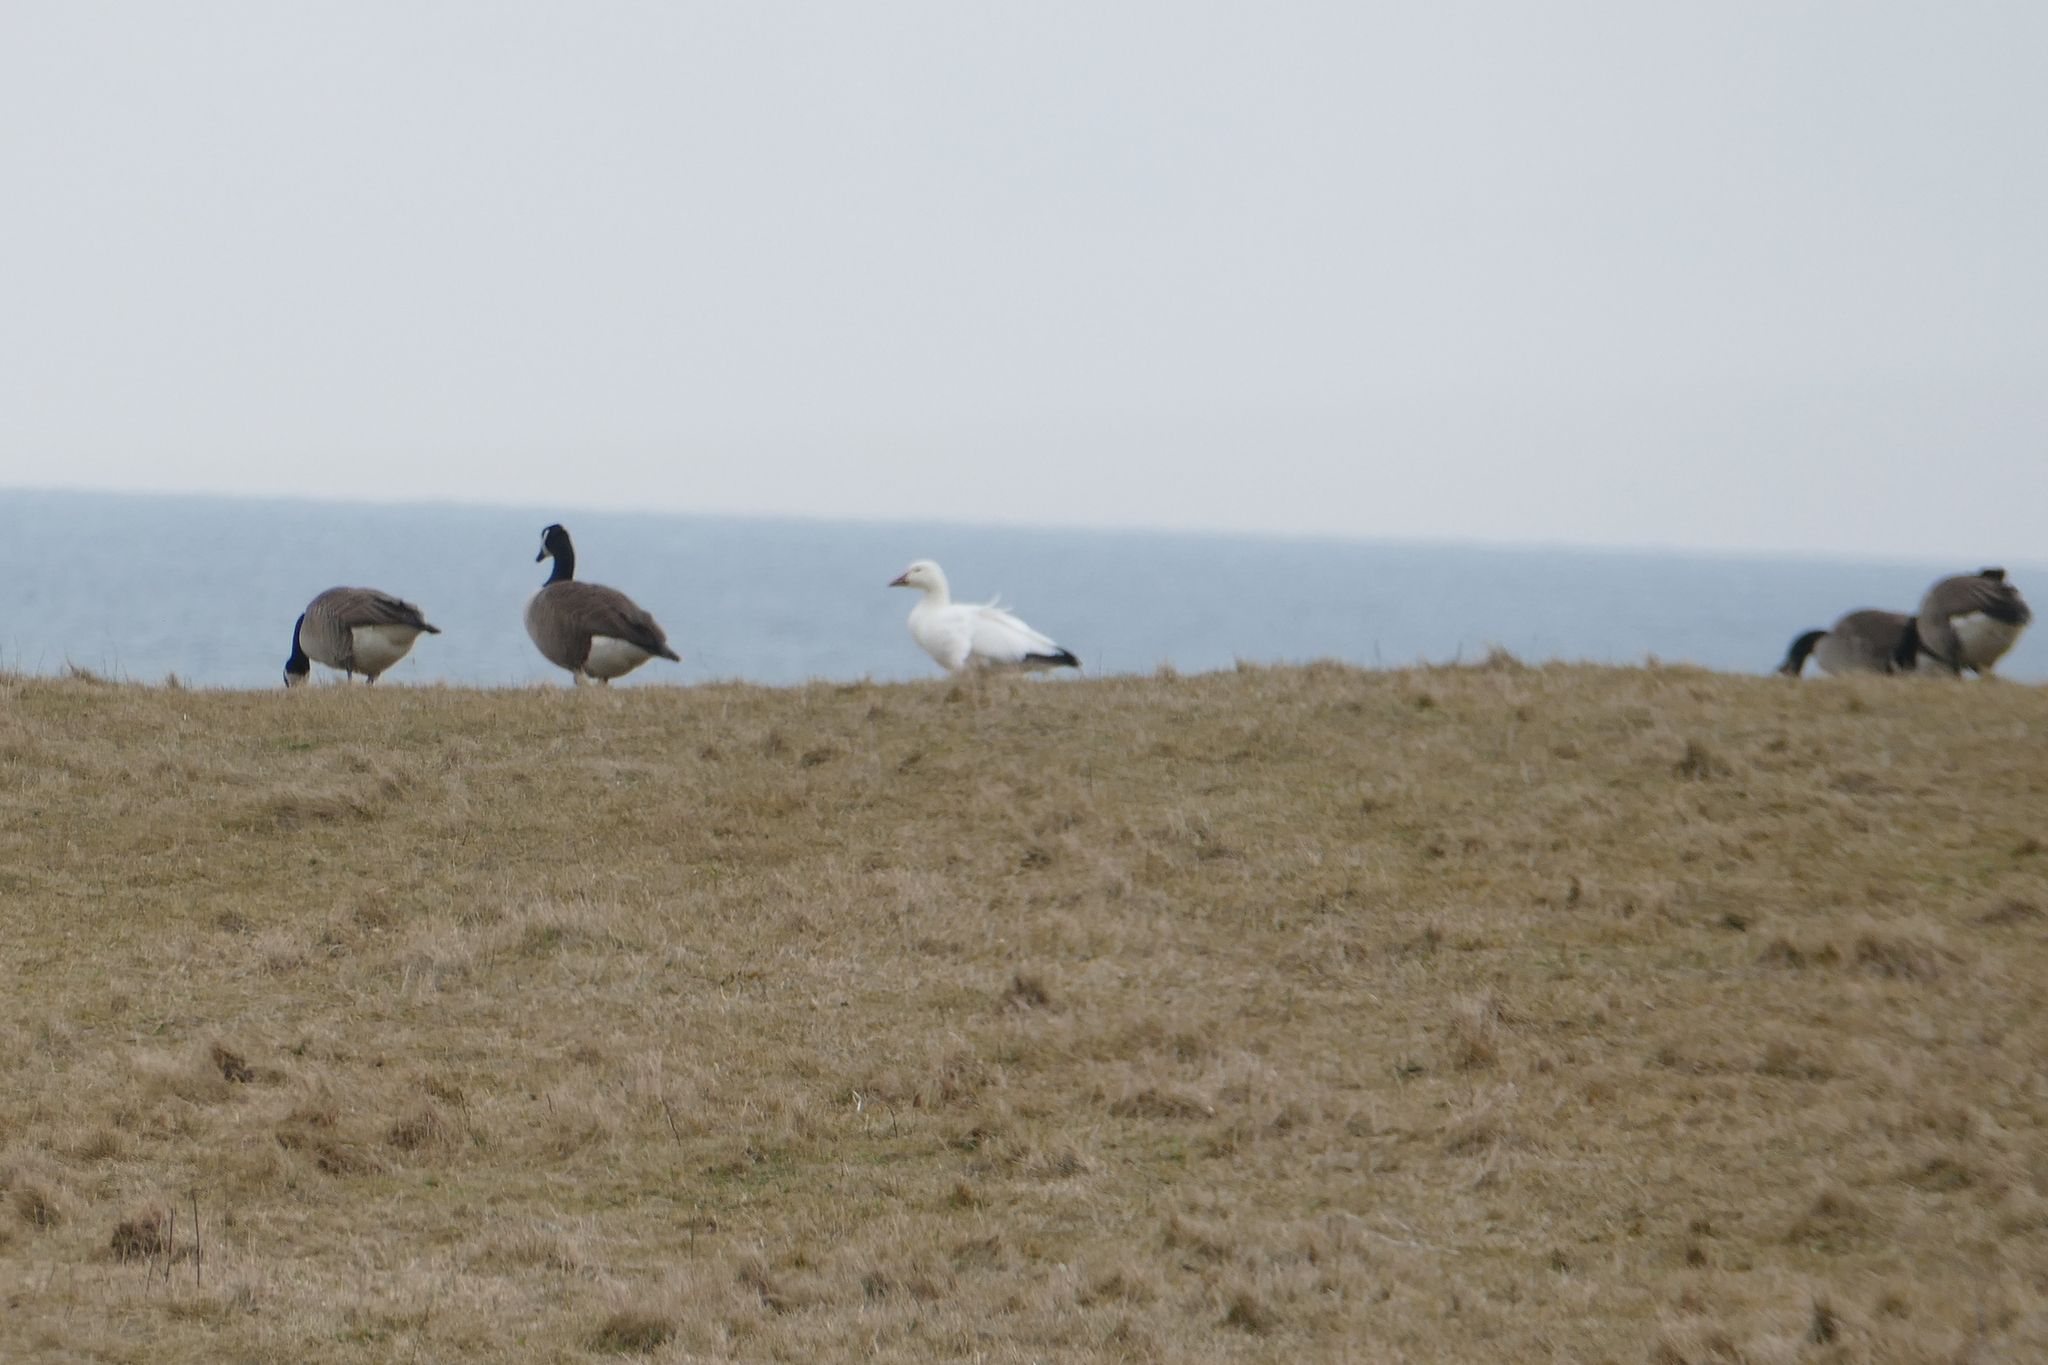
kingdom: Animalia
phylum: Chordata
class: Aves
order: Anseriformes
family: Anatidae
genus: Anser
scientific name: Anser caerulescens
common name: Snow goose
